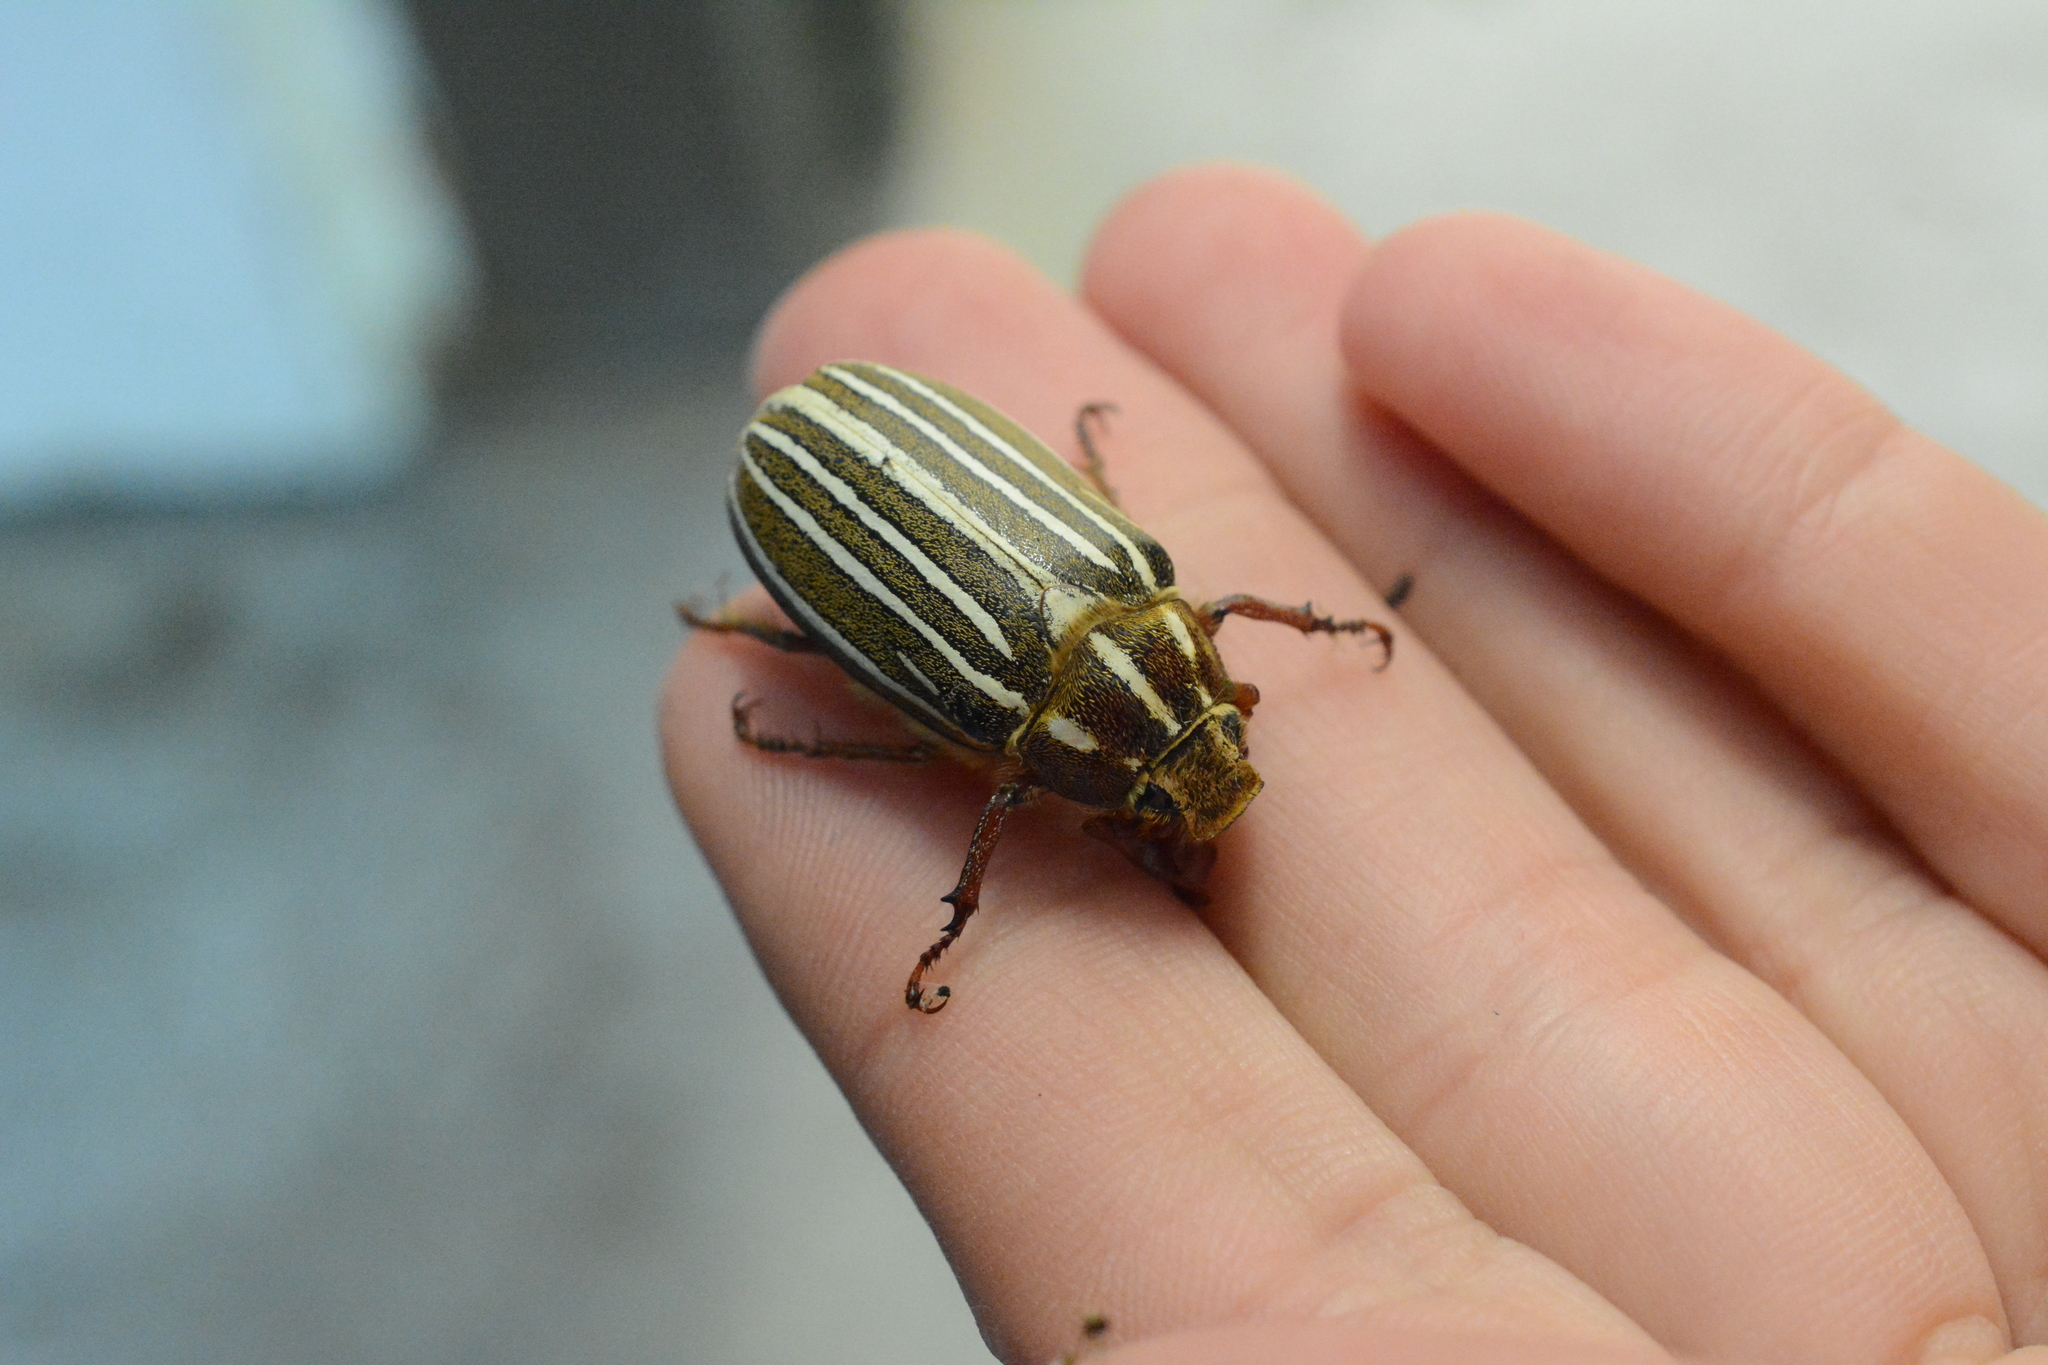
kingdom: Animalia
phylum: Arthropoda
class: Insecta
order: Coleoptera
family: Scarabaeidae
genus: Polyphylla
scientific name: Polyphylla crinita
